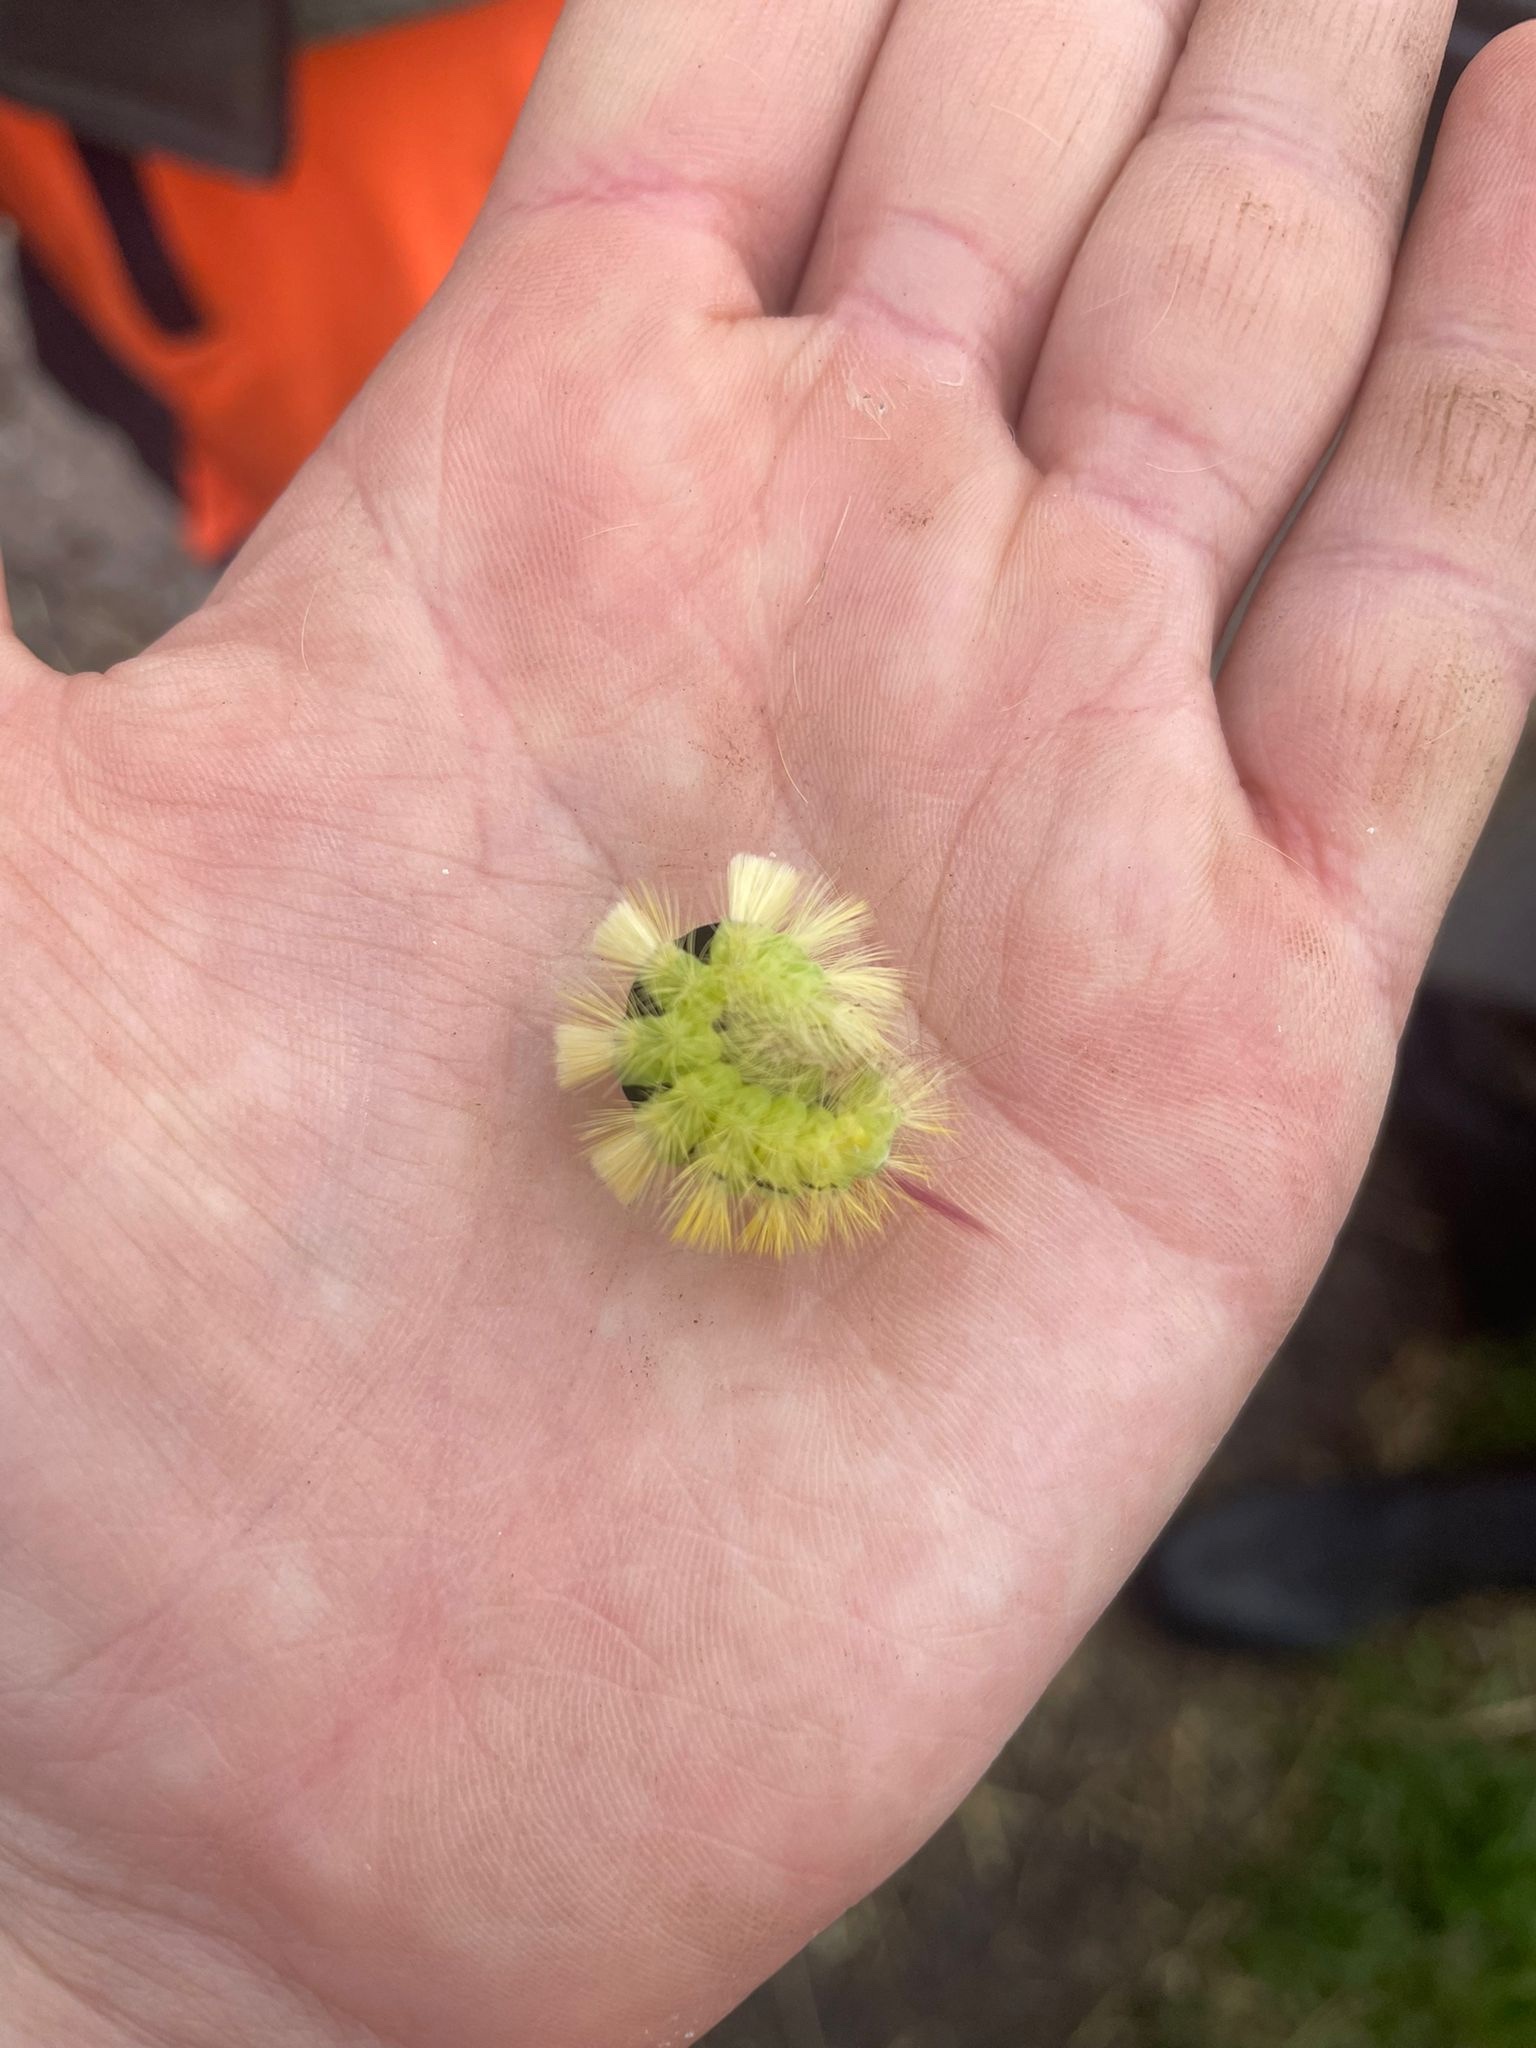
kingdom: Animalia
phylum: Arthropoda
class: Insecta
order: Lepidoptera
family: Erebidae
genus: Calliteara
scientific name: Calliteara pudibunda
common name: Pale tussock
